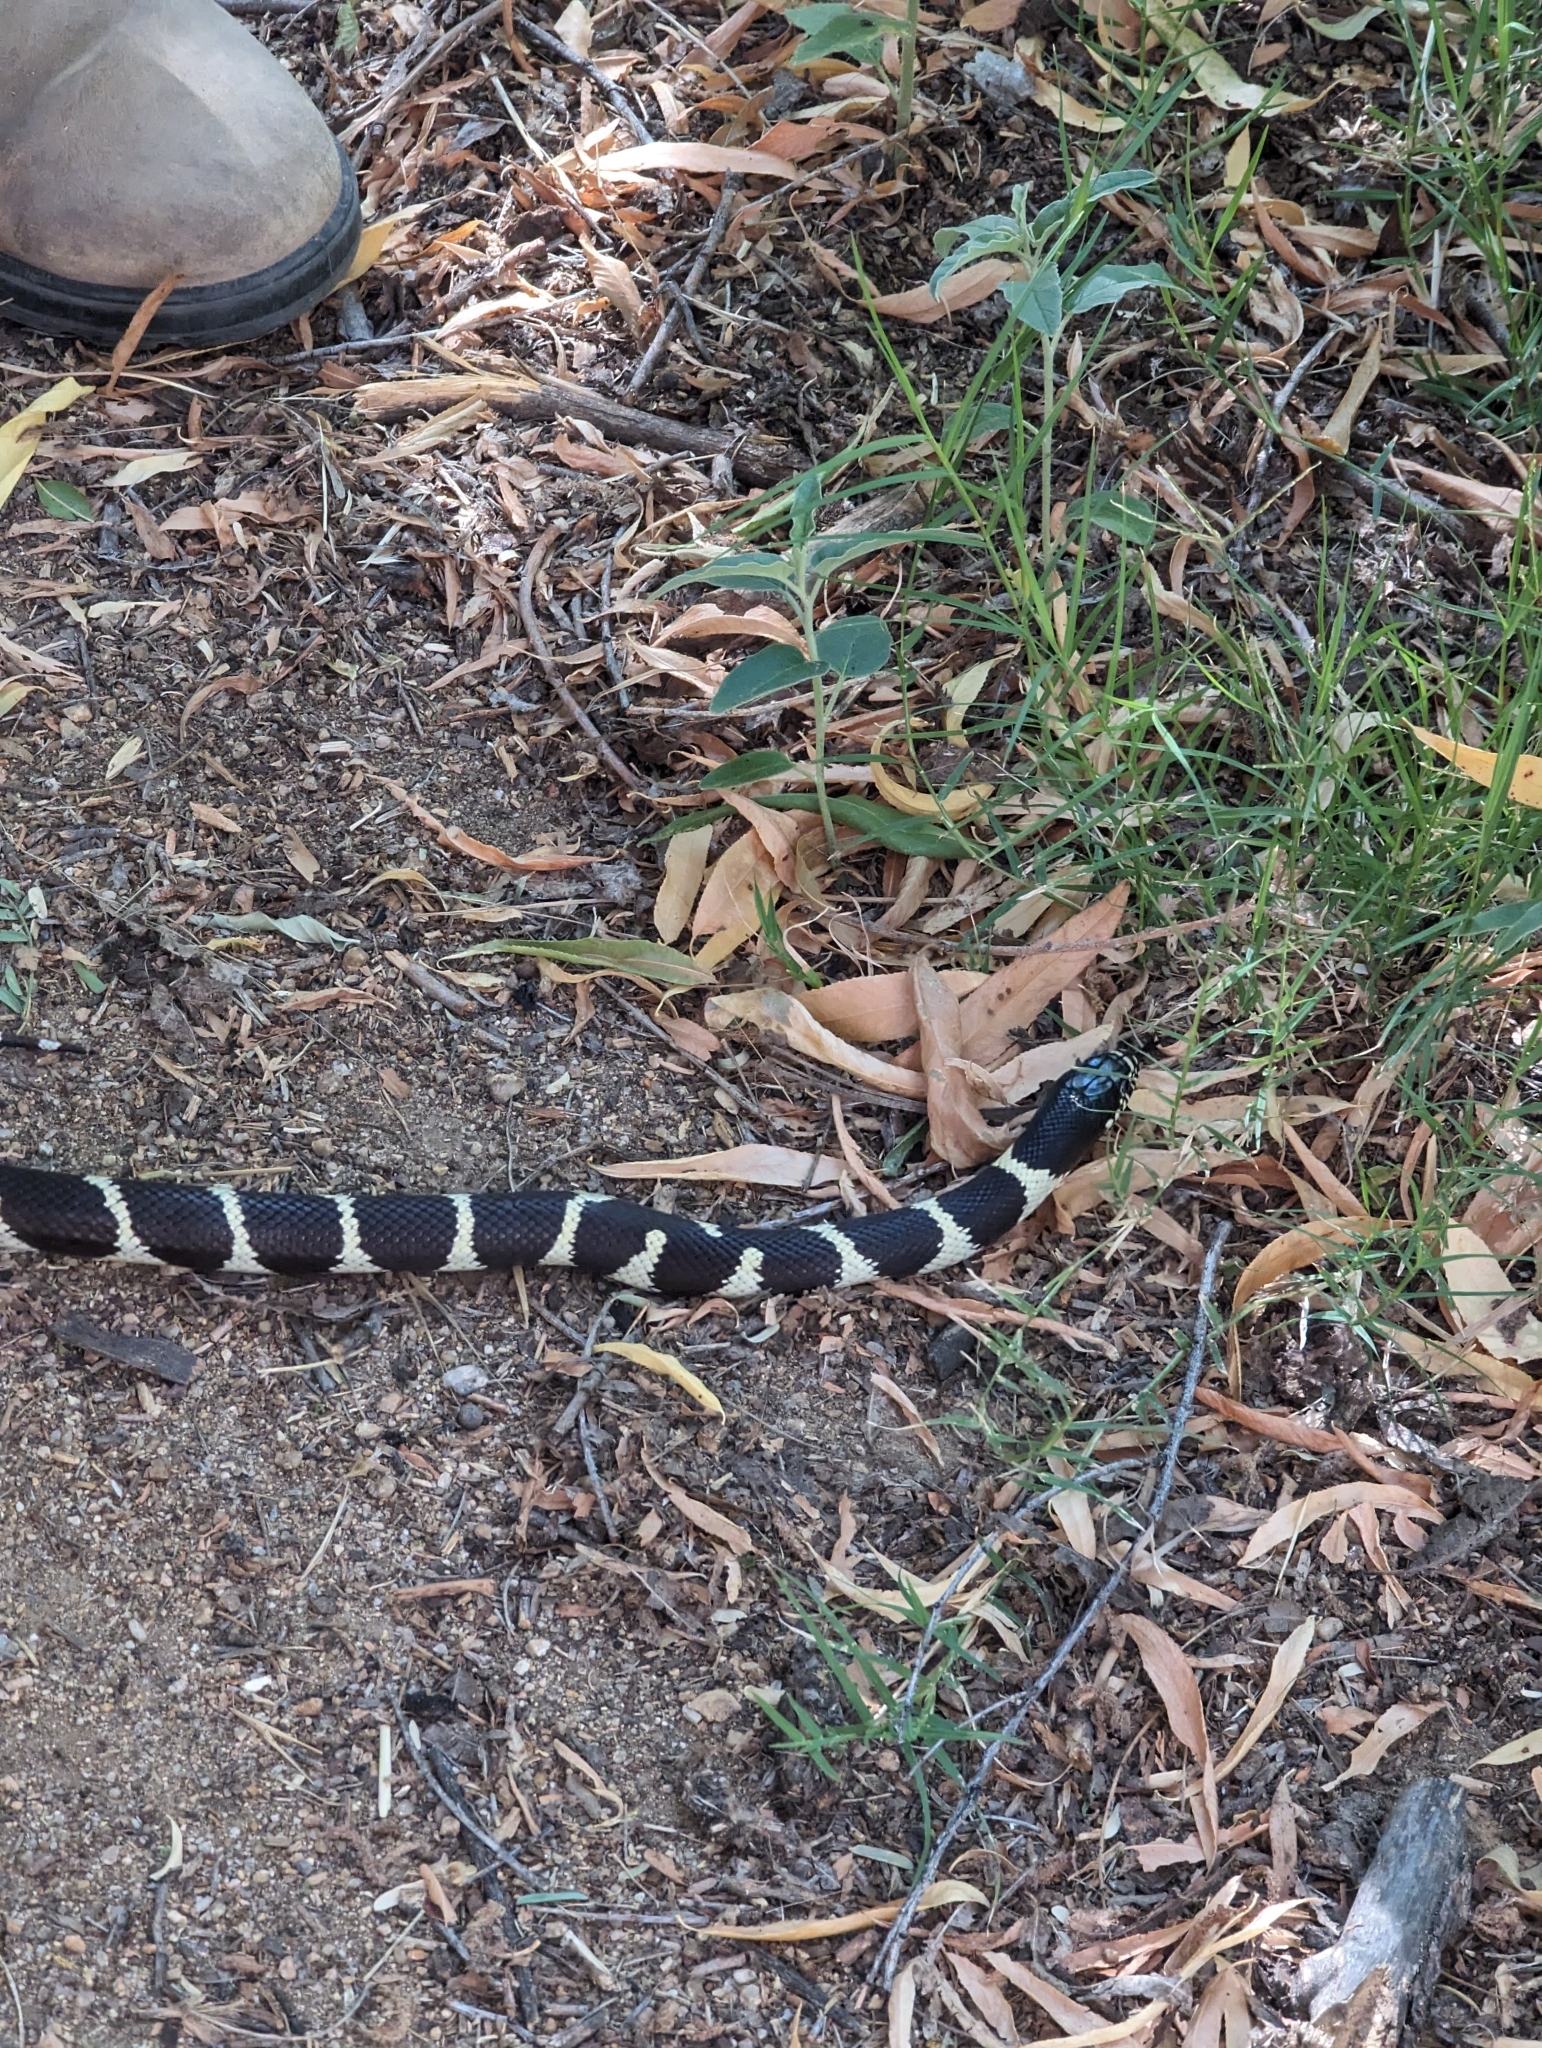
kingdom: Animalia
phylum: Chordata
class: Squamata
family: Colubridae
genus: Lampropeltis
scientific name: Lampropeltis californiae
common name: California kingsnake
